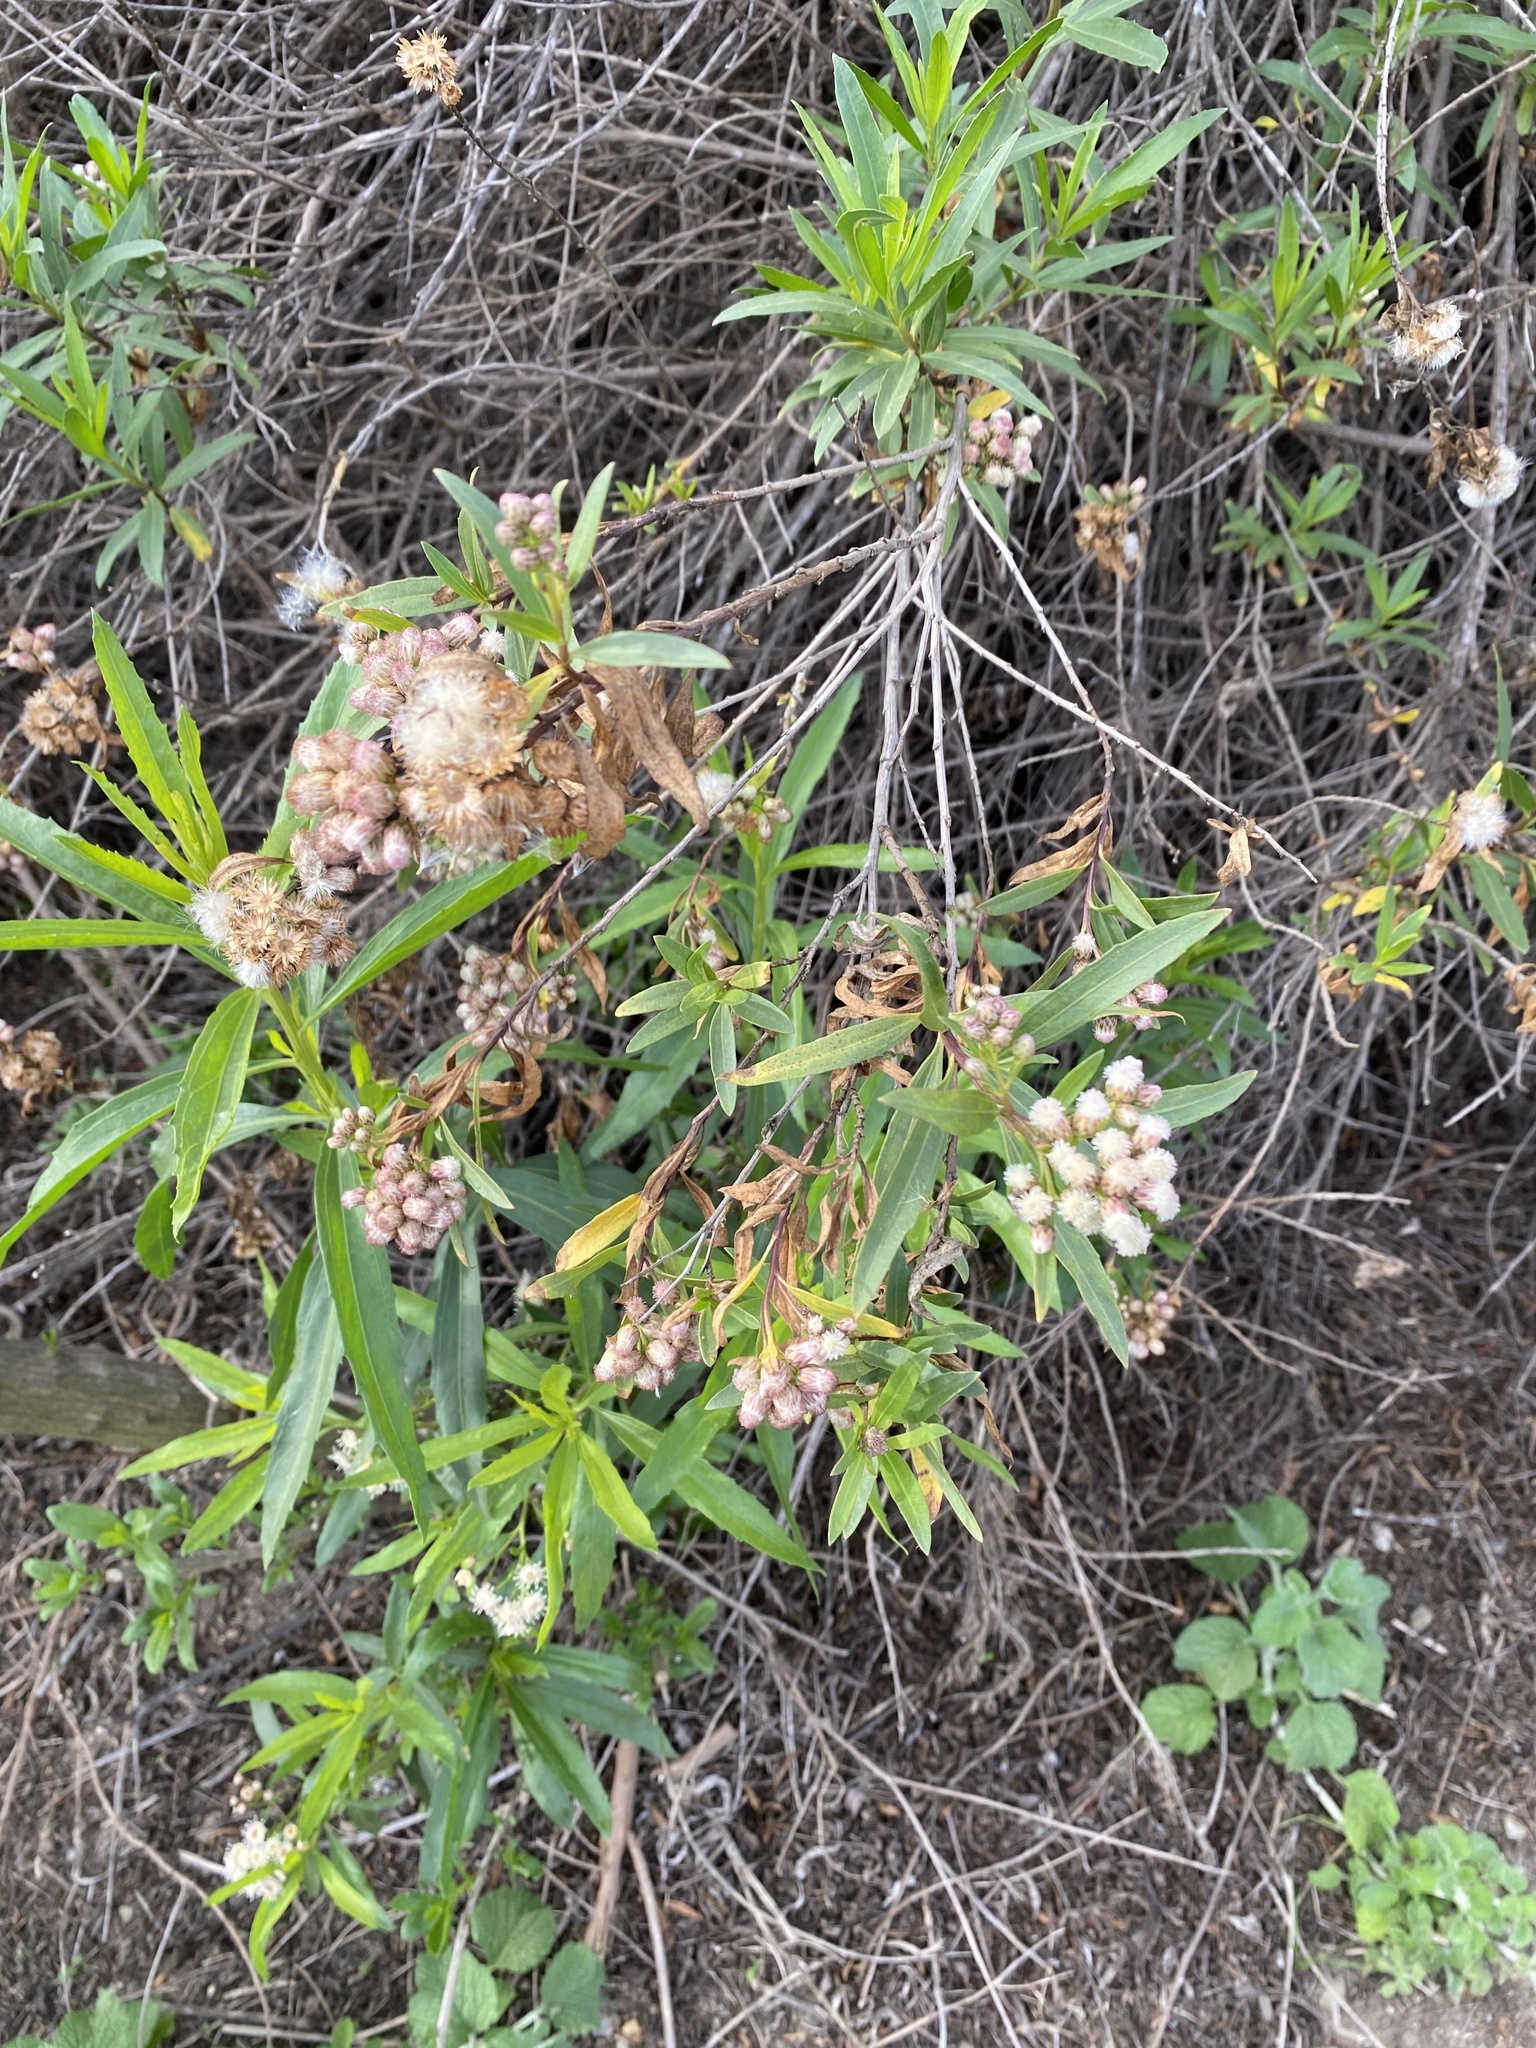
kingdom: Plantae
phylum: Tracheophyta
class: Magnoliopsida
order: Asterales
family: Asteraceae
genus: Baccharis
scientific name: Baccharis salicifolia
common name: Sticky baccharis
